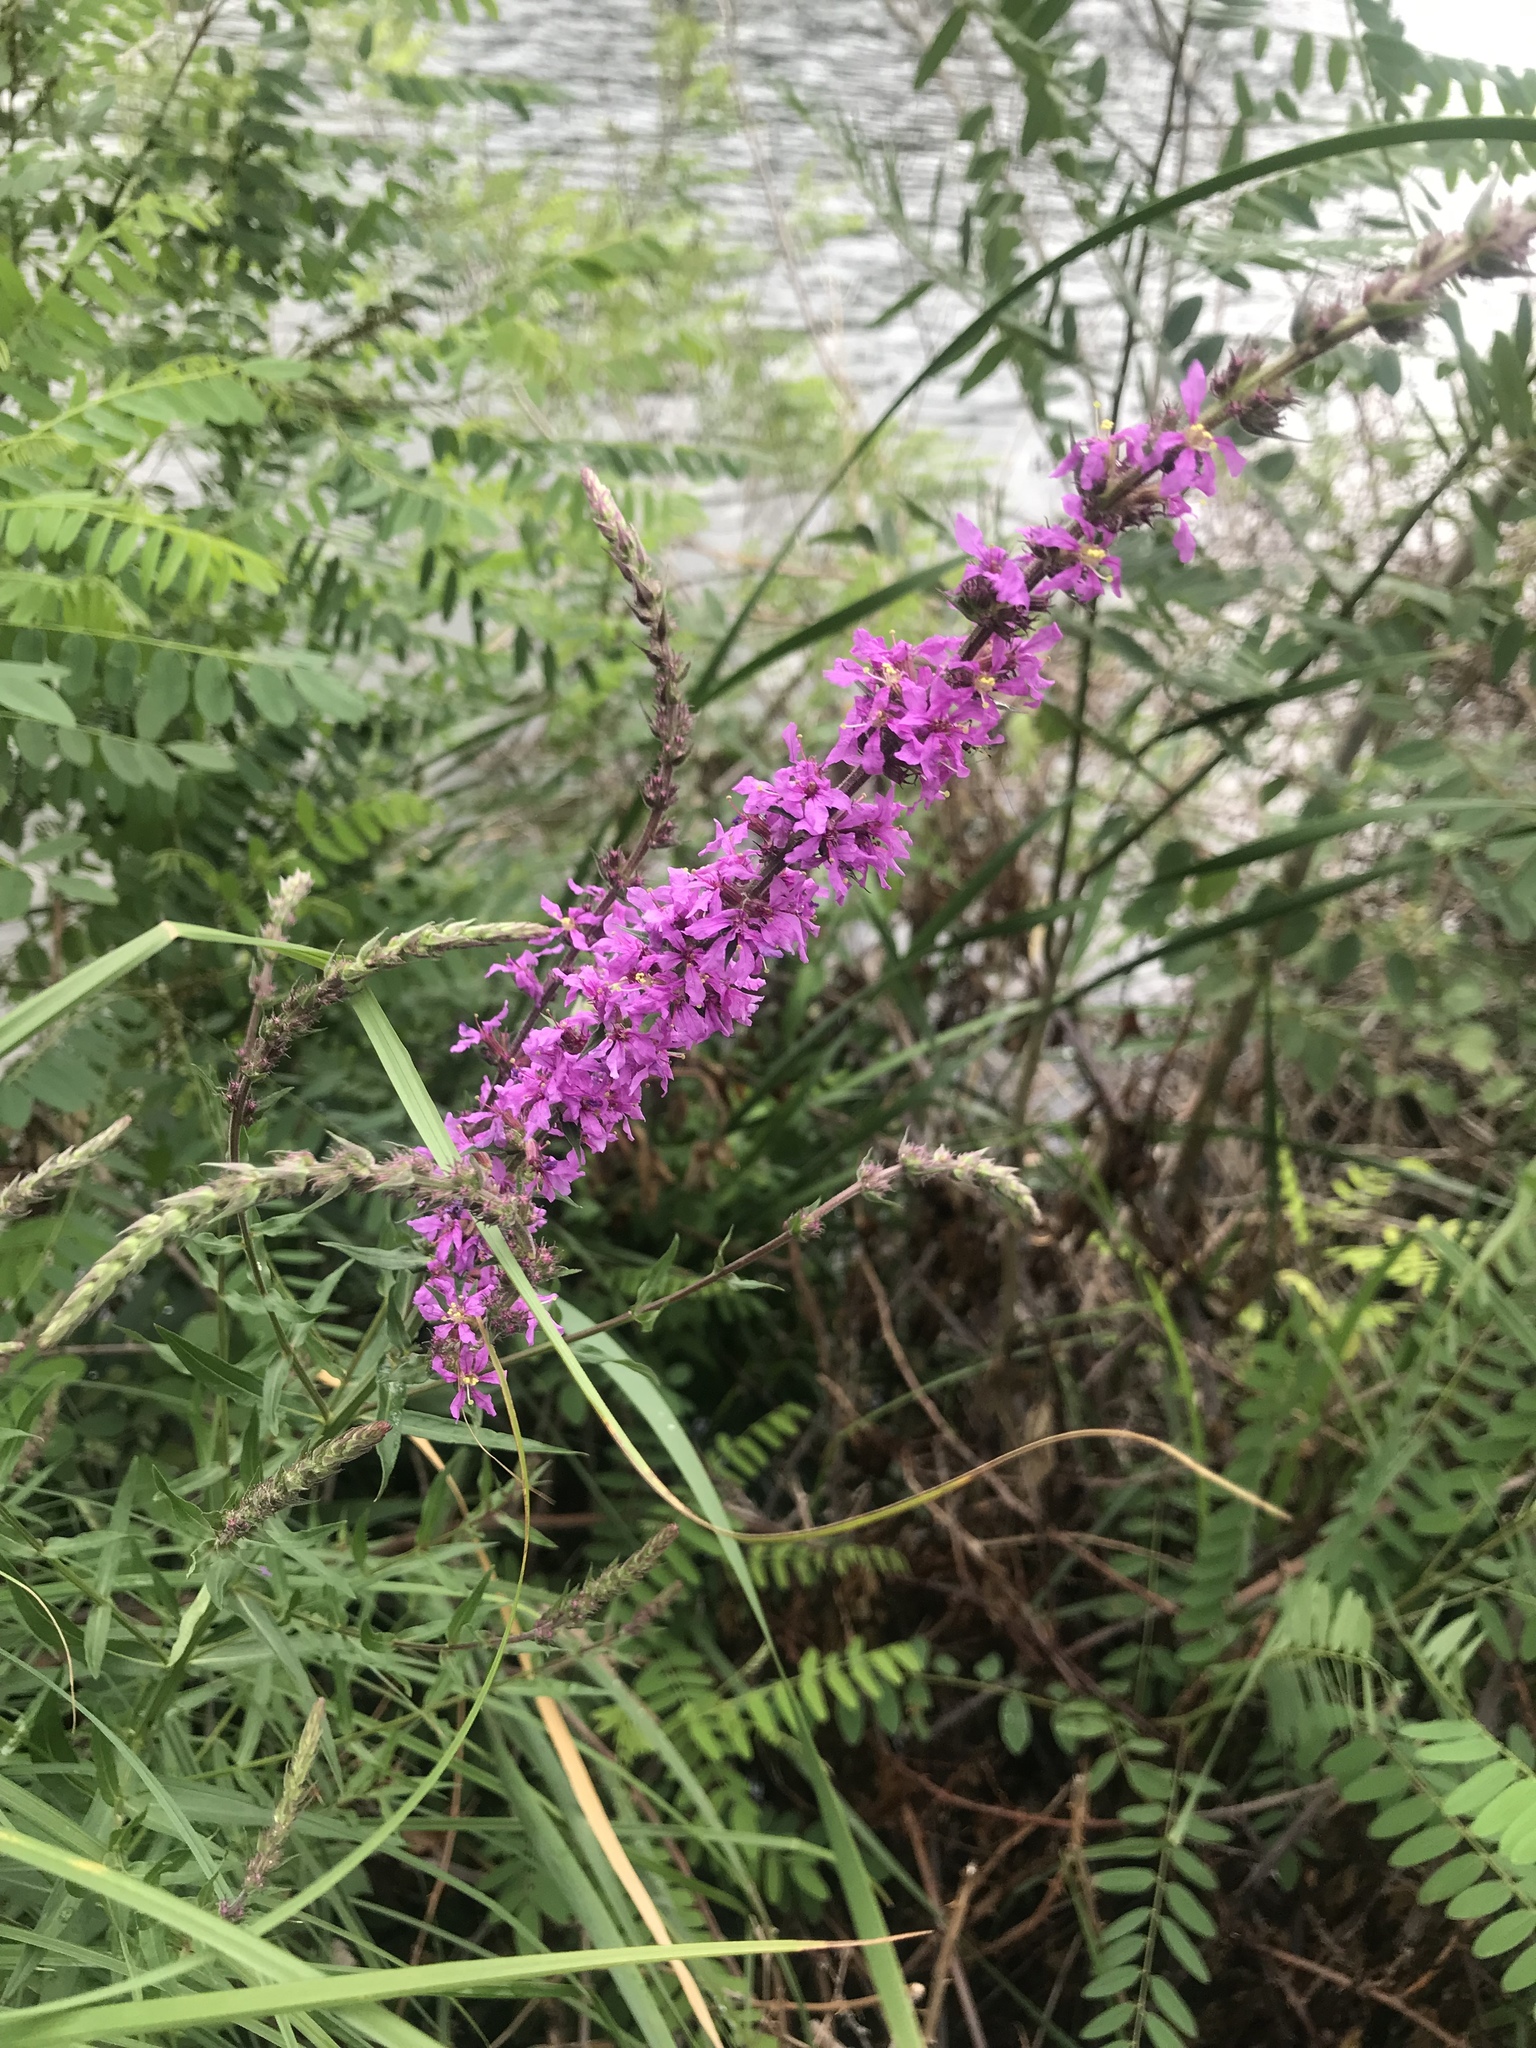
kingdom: Plantae
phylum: Tracheophyta
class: Magnoliopsida
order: Myrtales
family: Lythraceae
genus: Lythrum
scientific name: Lythrum salicaria
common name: Purple loosestrife
